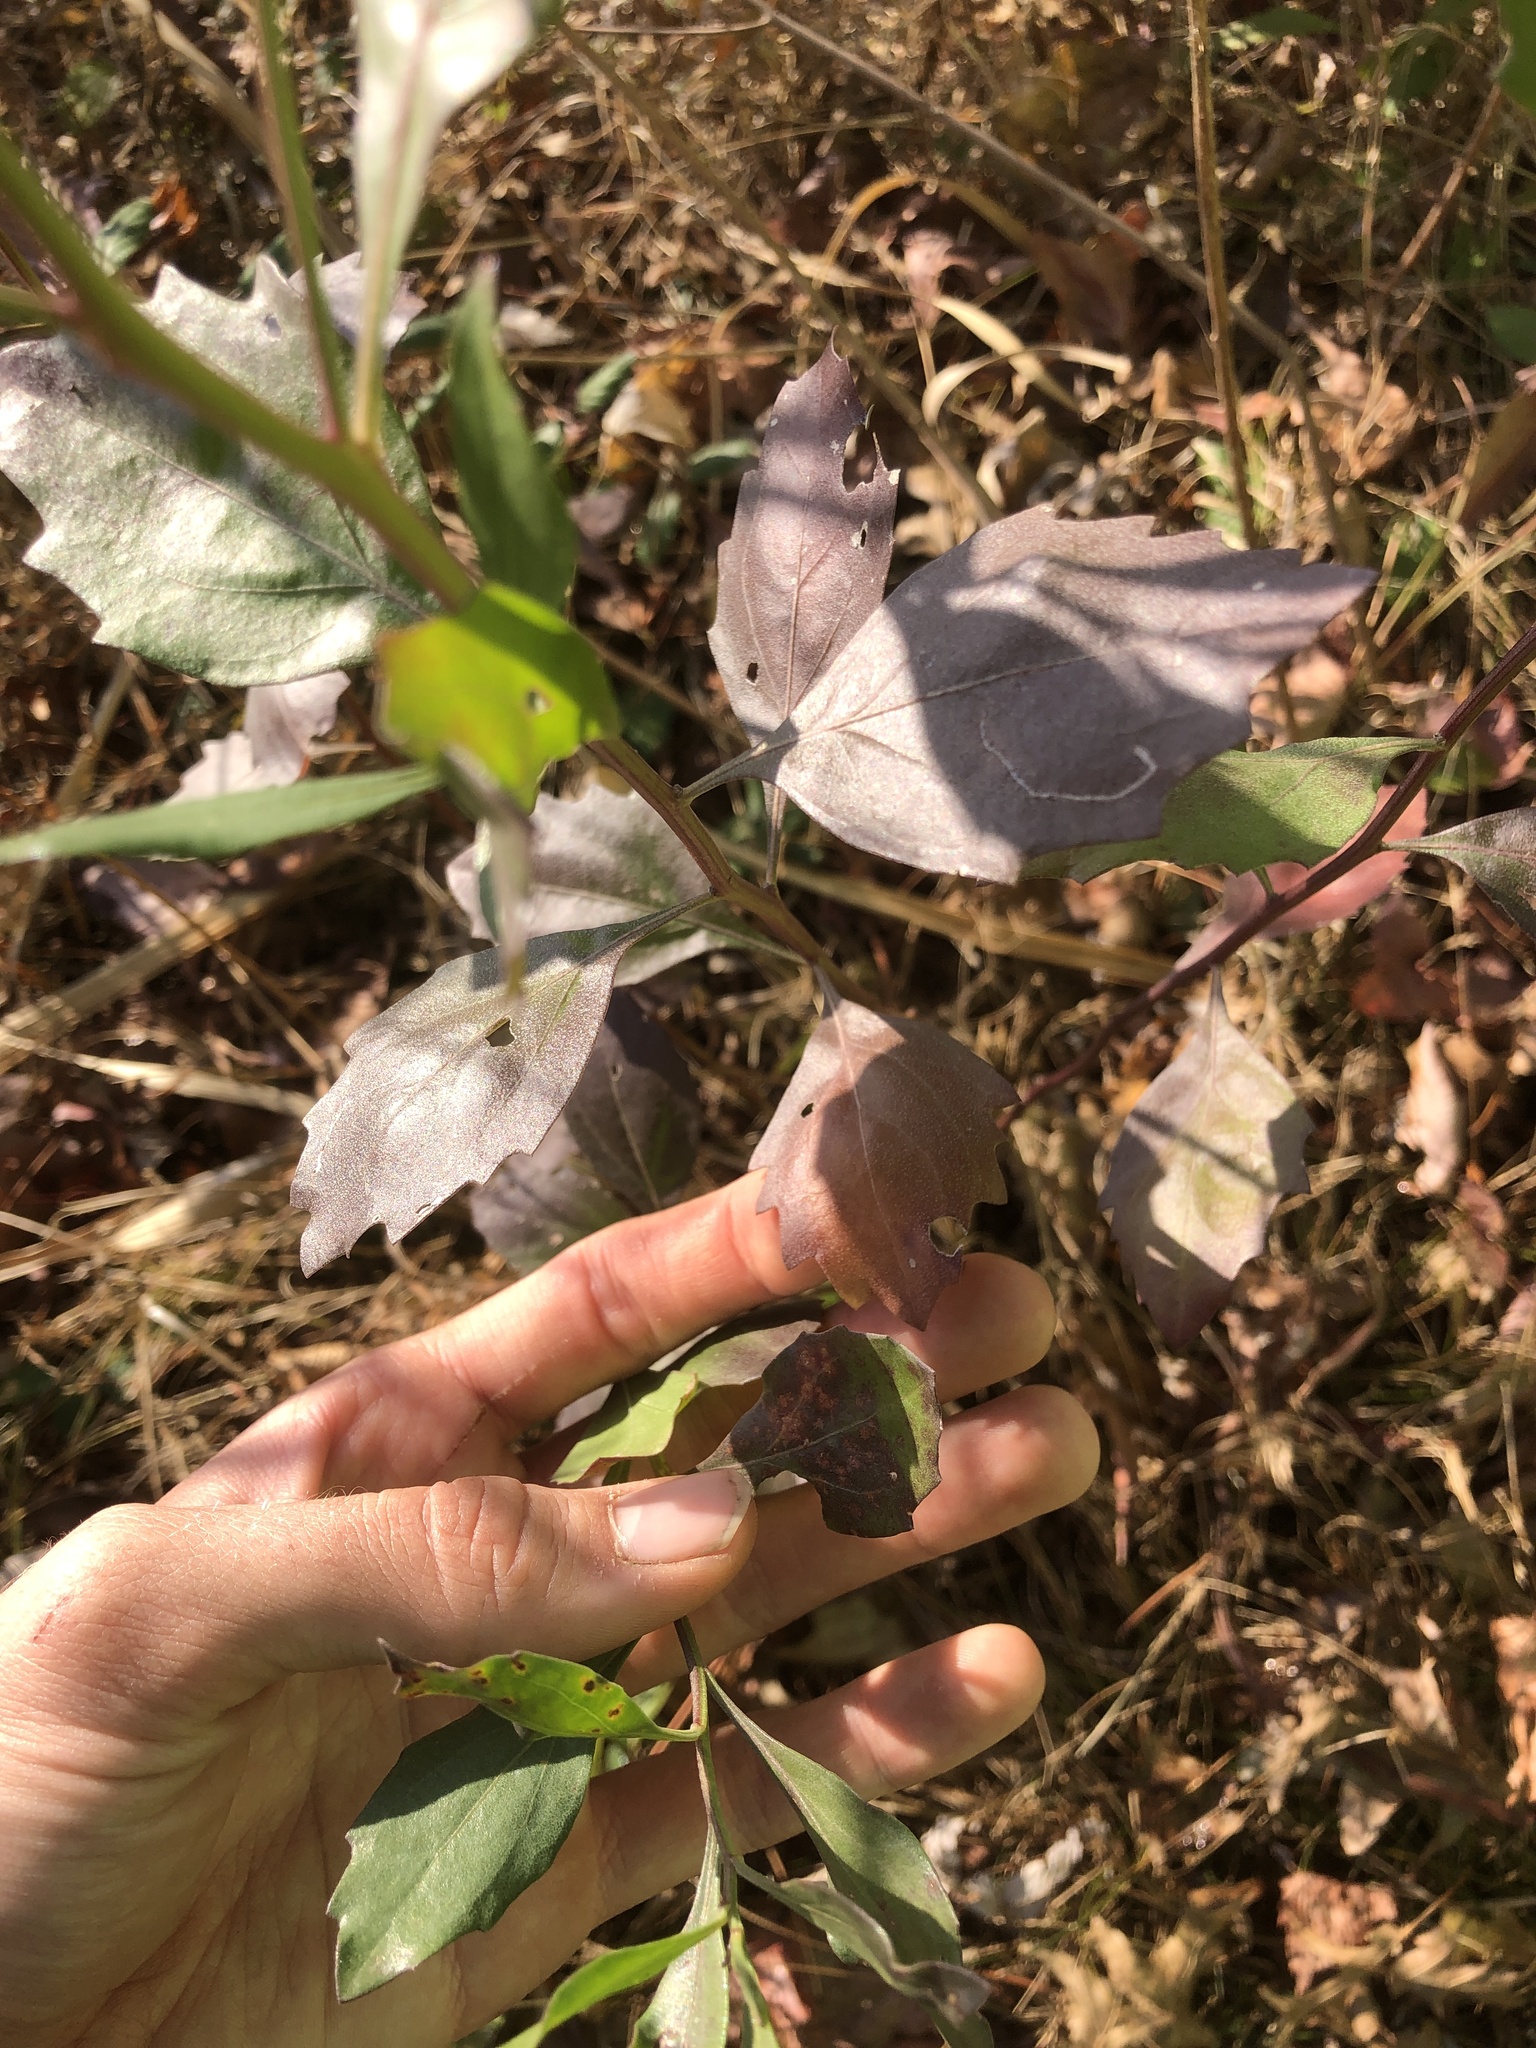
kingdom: Plantae
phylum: Tracheophyta
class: Magnoliopsida
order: Asterales
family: Asteraceae
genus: Baccharis
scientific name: Baccharis halimifolia
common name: Eastern baccharis
